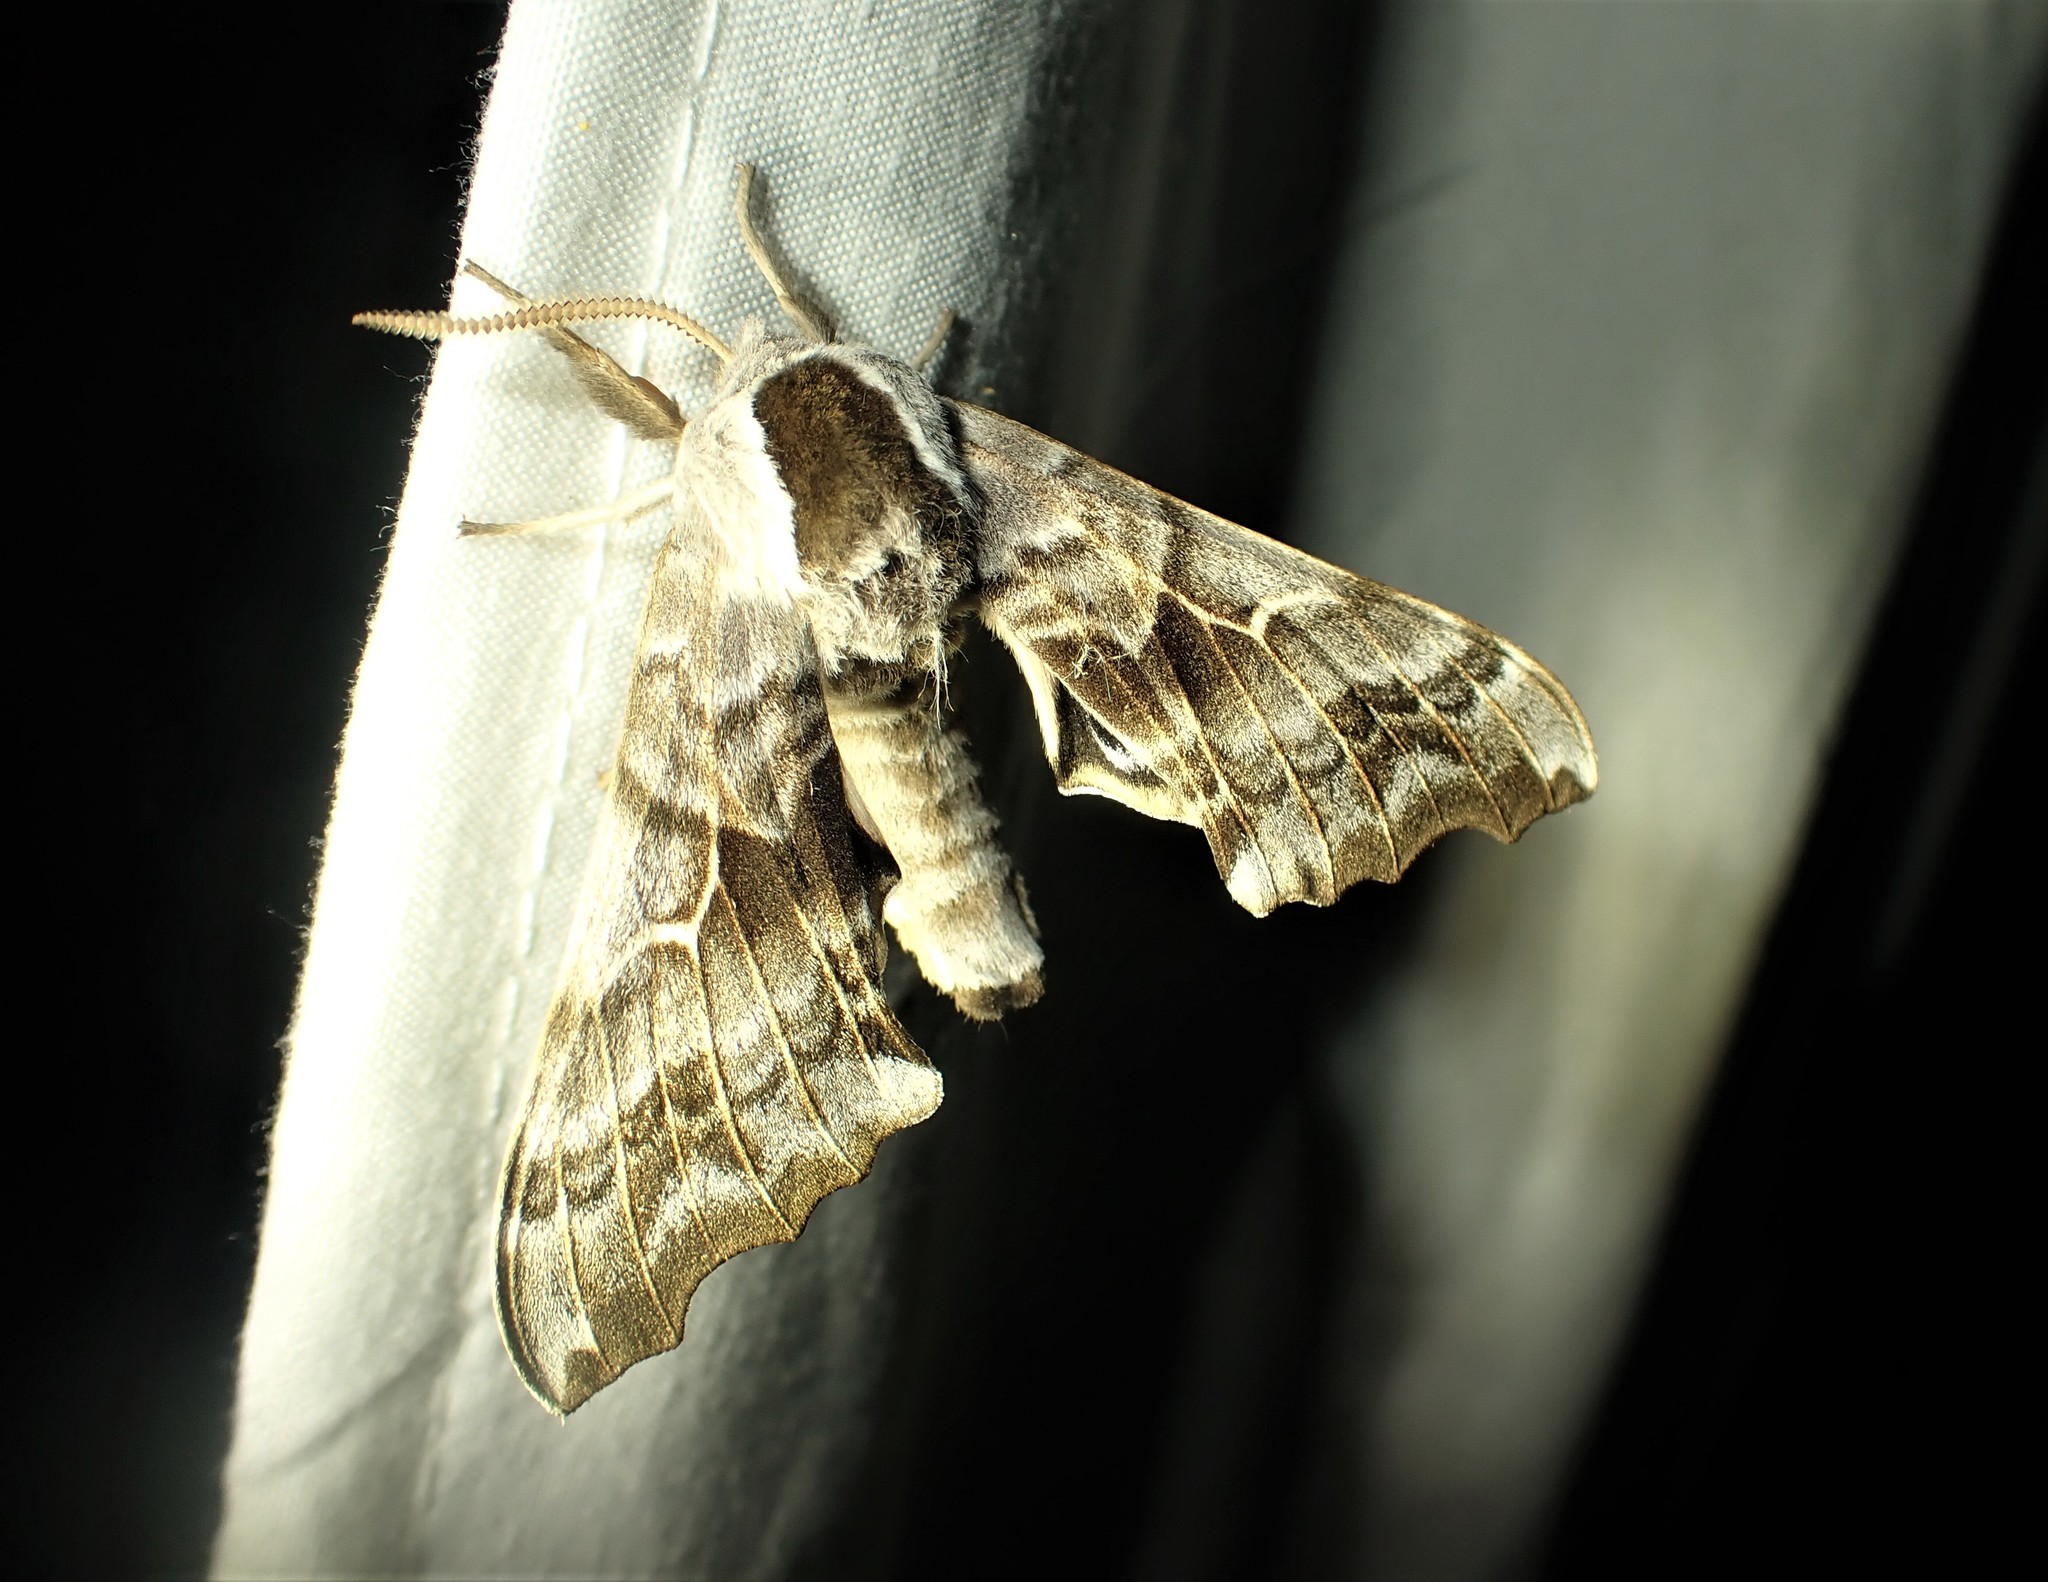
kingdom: Animalia
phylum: Arthropoda
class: Insecta
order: Lepidoptera
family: Sphingidae
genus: Smerinthus
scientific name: Smerinthus cerisyi
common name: Cerisy's sphinx moth
